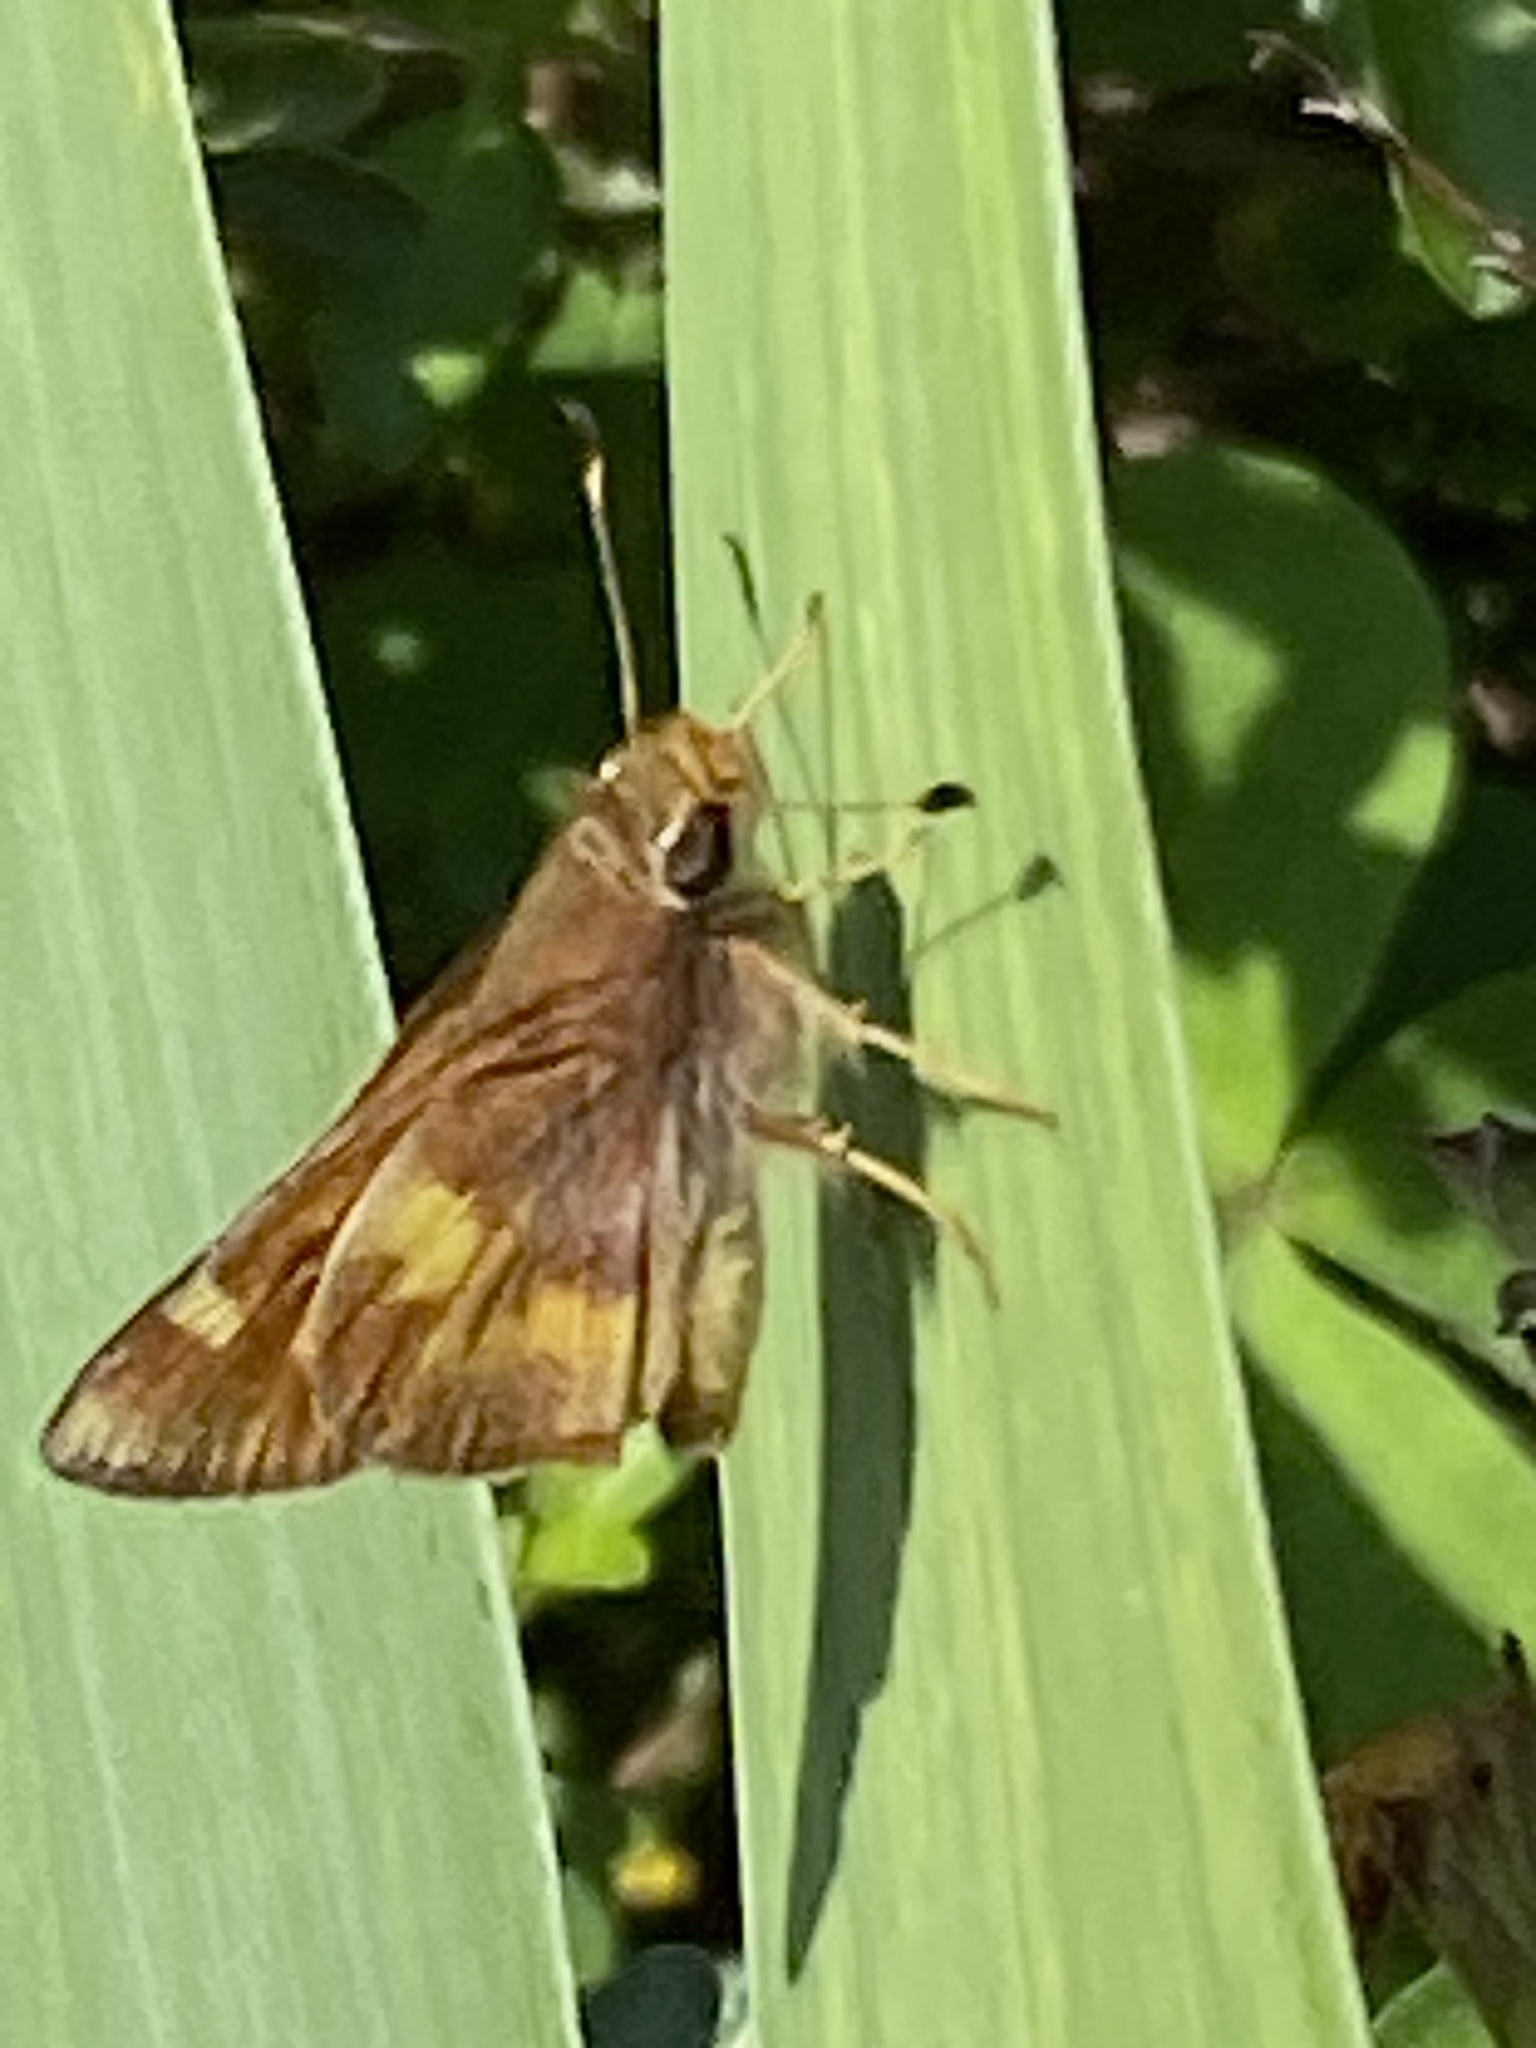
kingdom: Animalia
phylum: Arthropoda
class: Insecta
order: Lepidoptera
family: Hesperiidae
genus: Lon
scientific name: Lon melane
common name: Umber skipper
